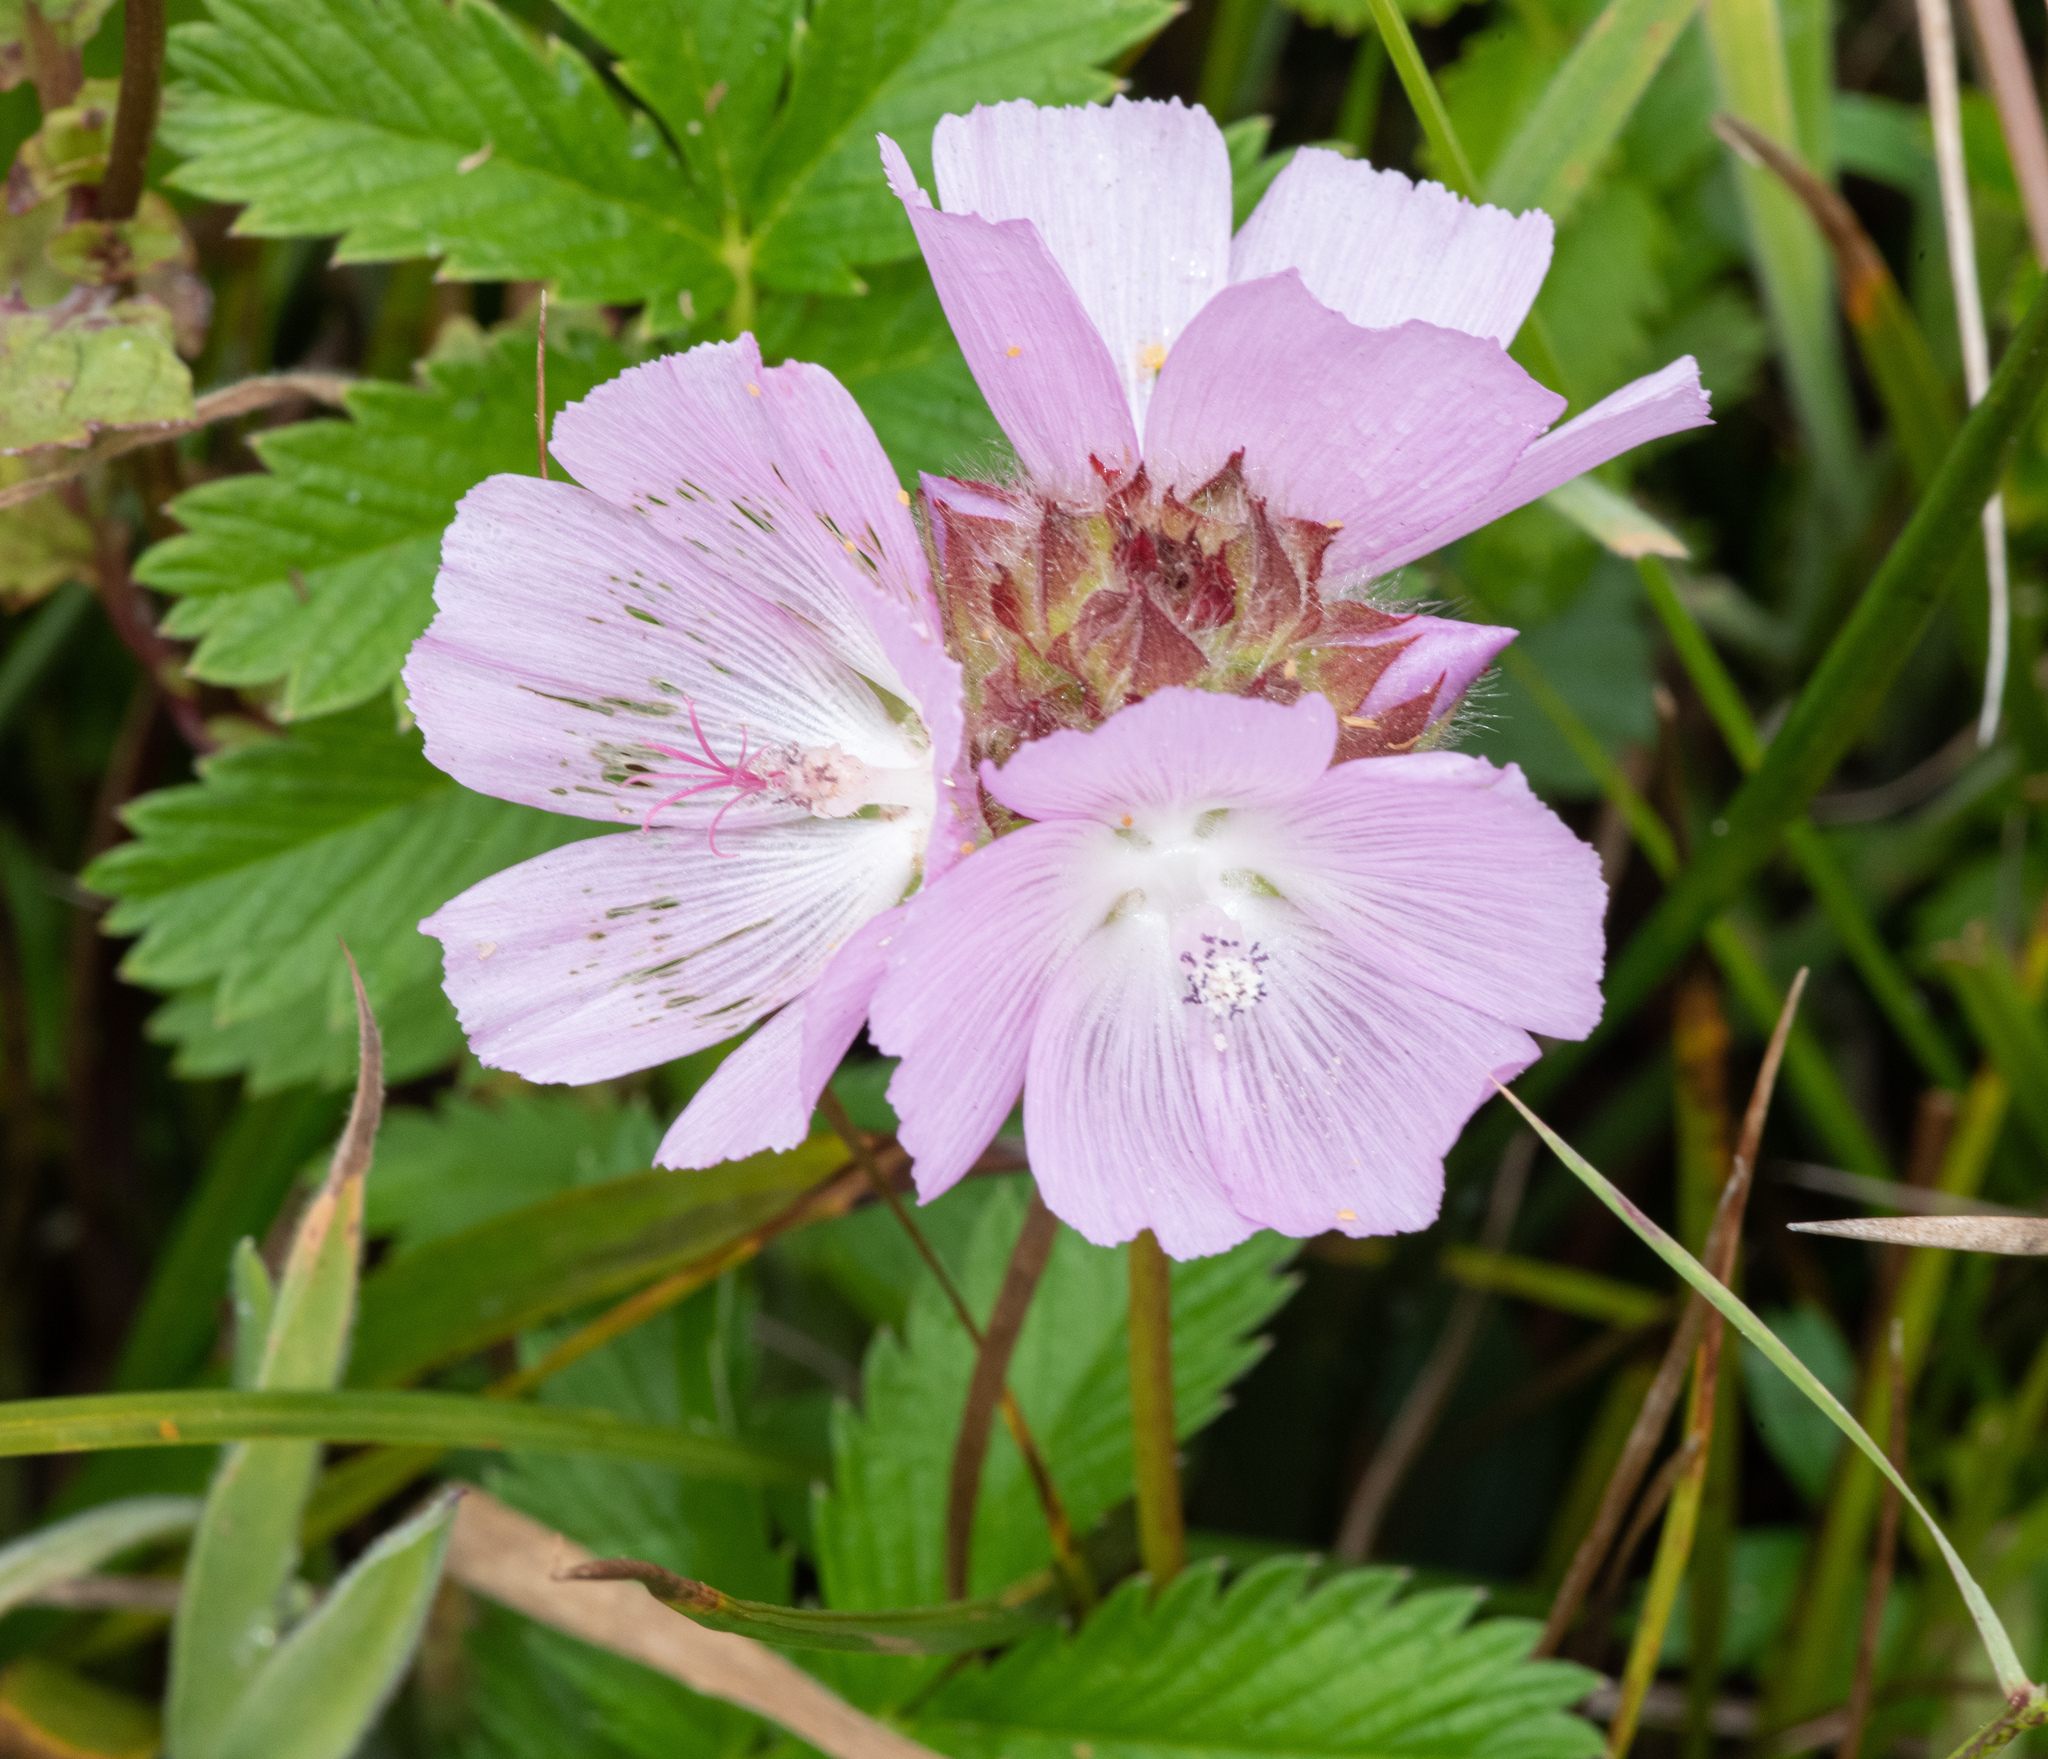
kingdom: Plantae
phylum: Tracheophyta
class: Magnoliopsida
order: Malvales
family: Malvaceae
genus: Sidalcea
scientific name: Sidalcea calycosa
